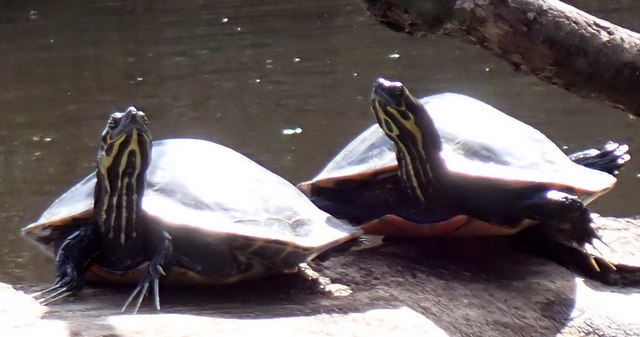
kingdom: Animalia
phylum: Chordata
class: Testudines
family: Emydidae
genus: Pseudemys
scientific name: Pseudemys concinna
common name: Eastern river cooter
